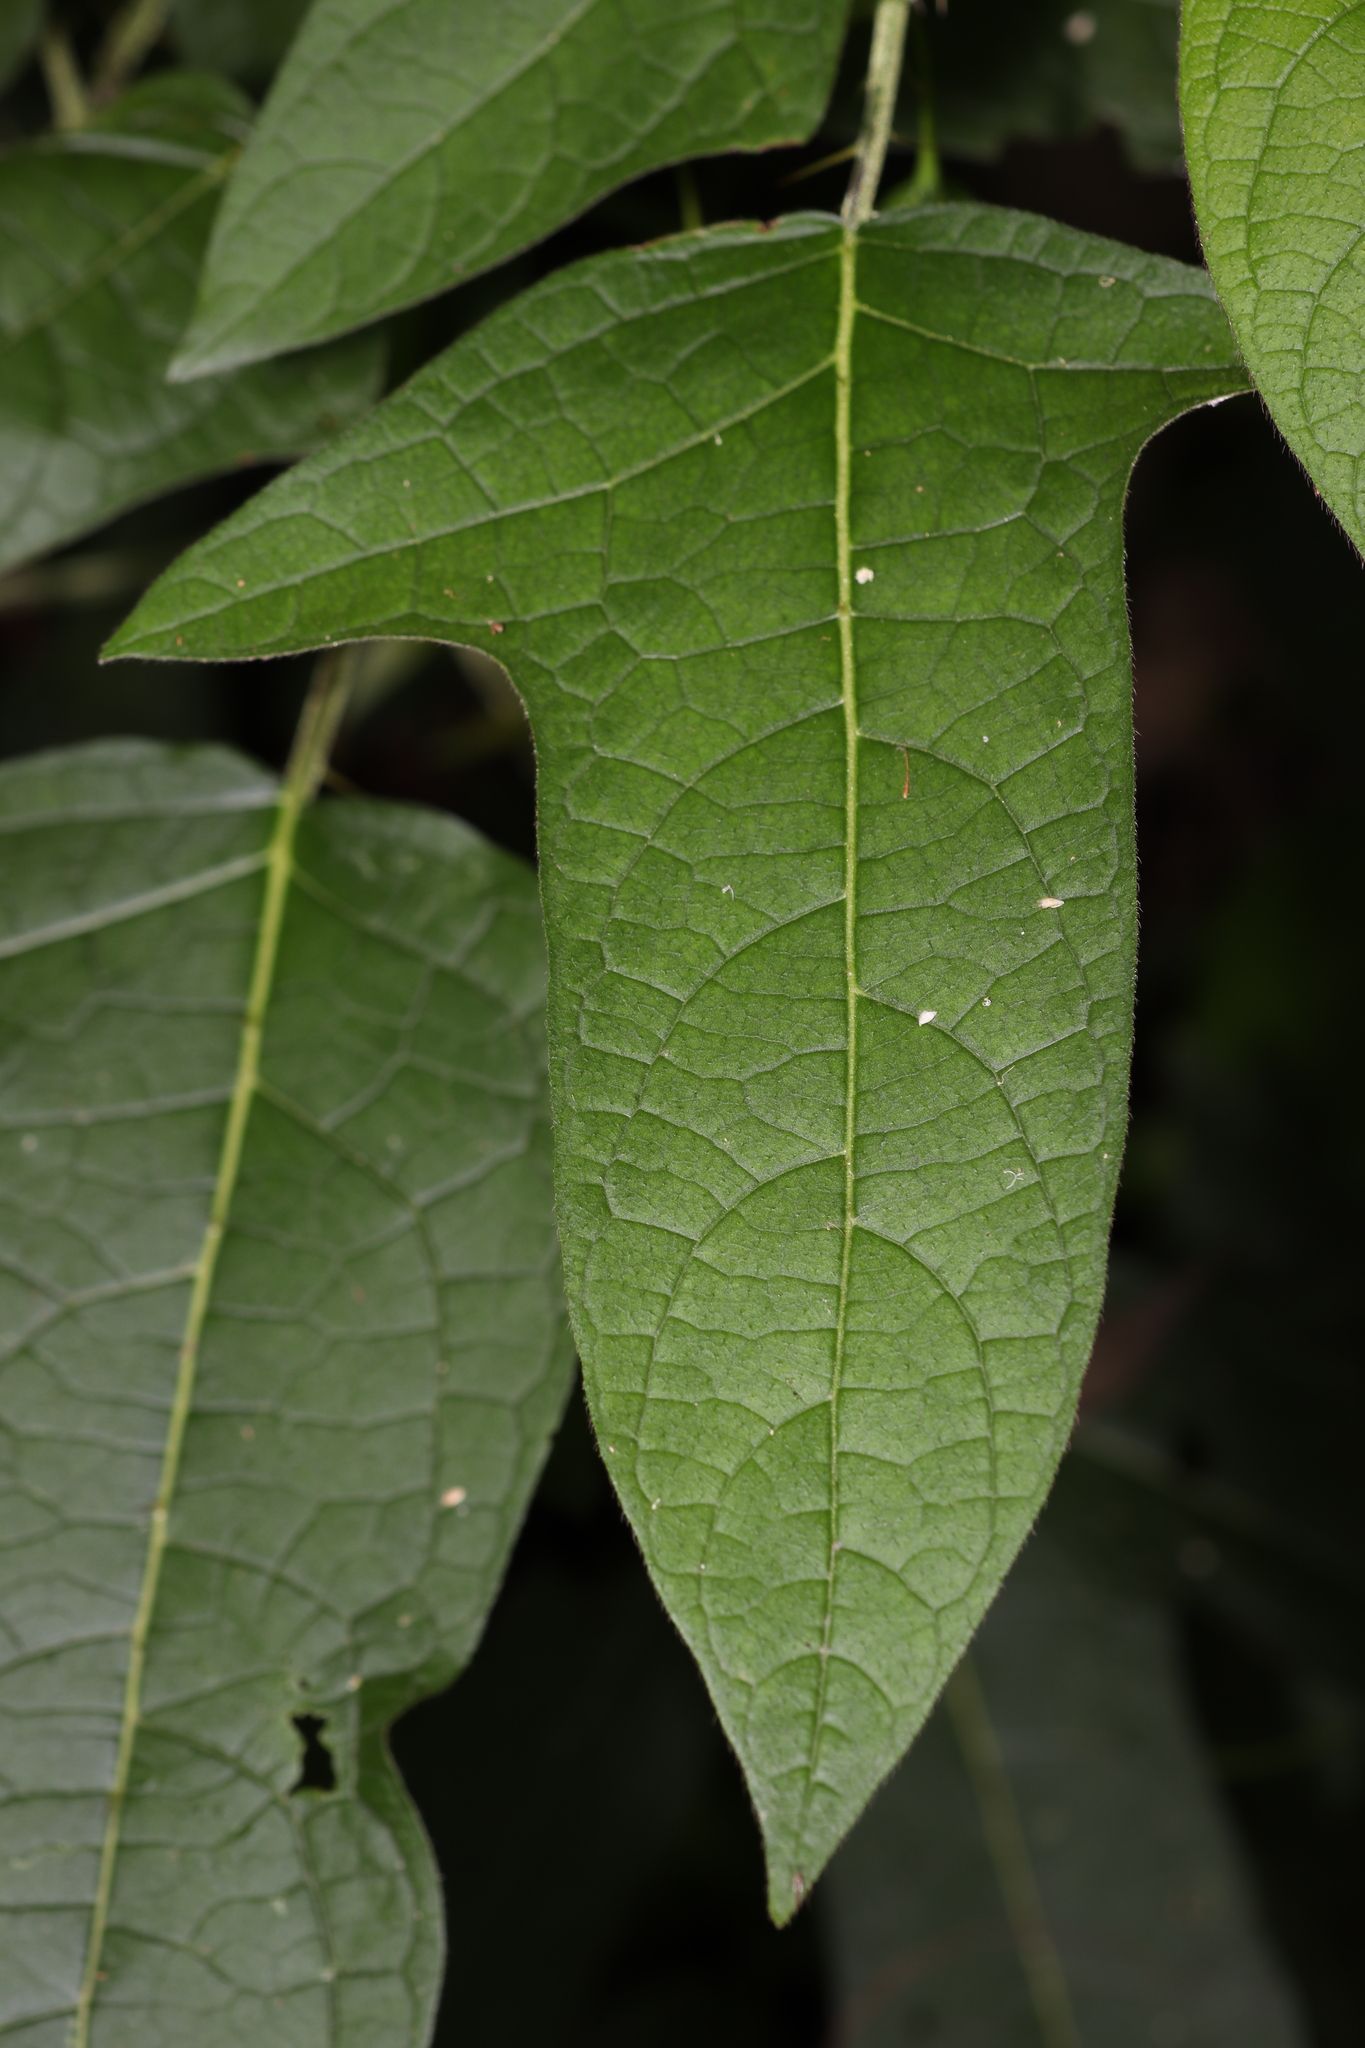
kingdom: Plantae
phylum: Tracheophyta
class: Magnoliopsida
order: Solanales
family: Solanaceae
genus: Solanum
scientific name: Solanum acerifolium
